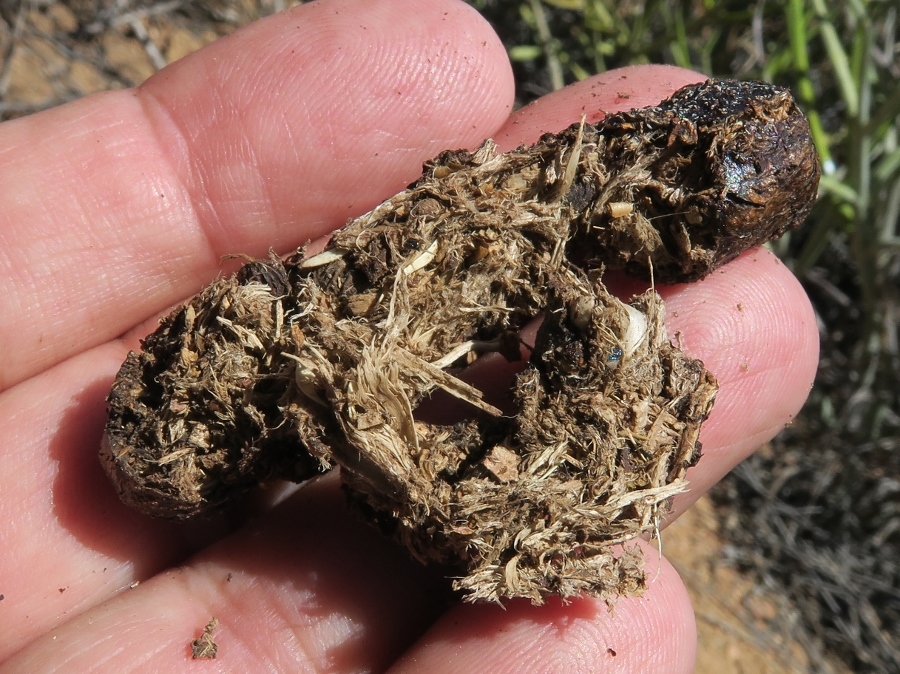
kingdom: Animalia
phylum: Chordata
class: Mammalia
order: Rodentia
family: Hystricidae
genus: Hystrix
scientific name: Hystrix africaeaustralis
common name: Cape porcupine
